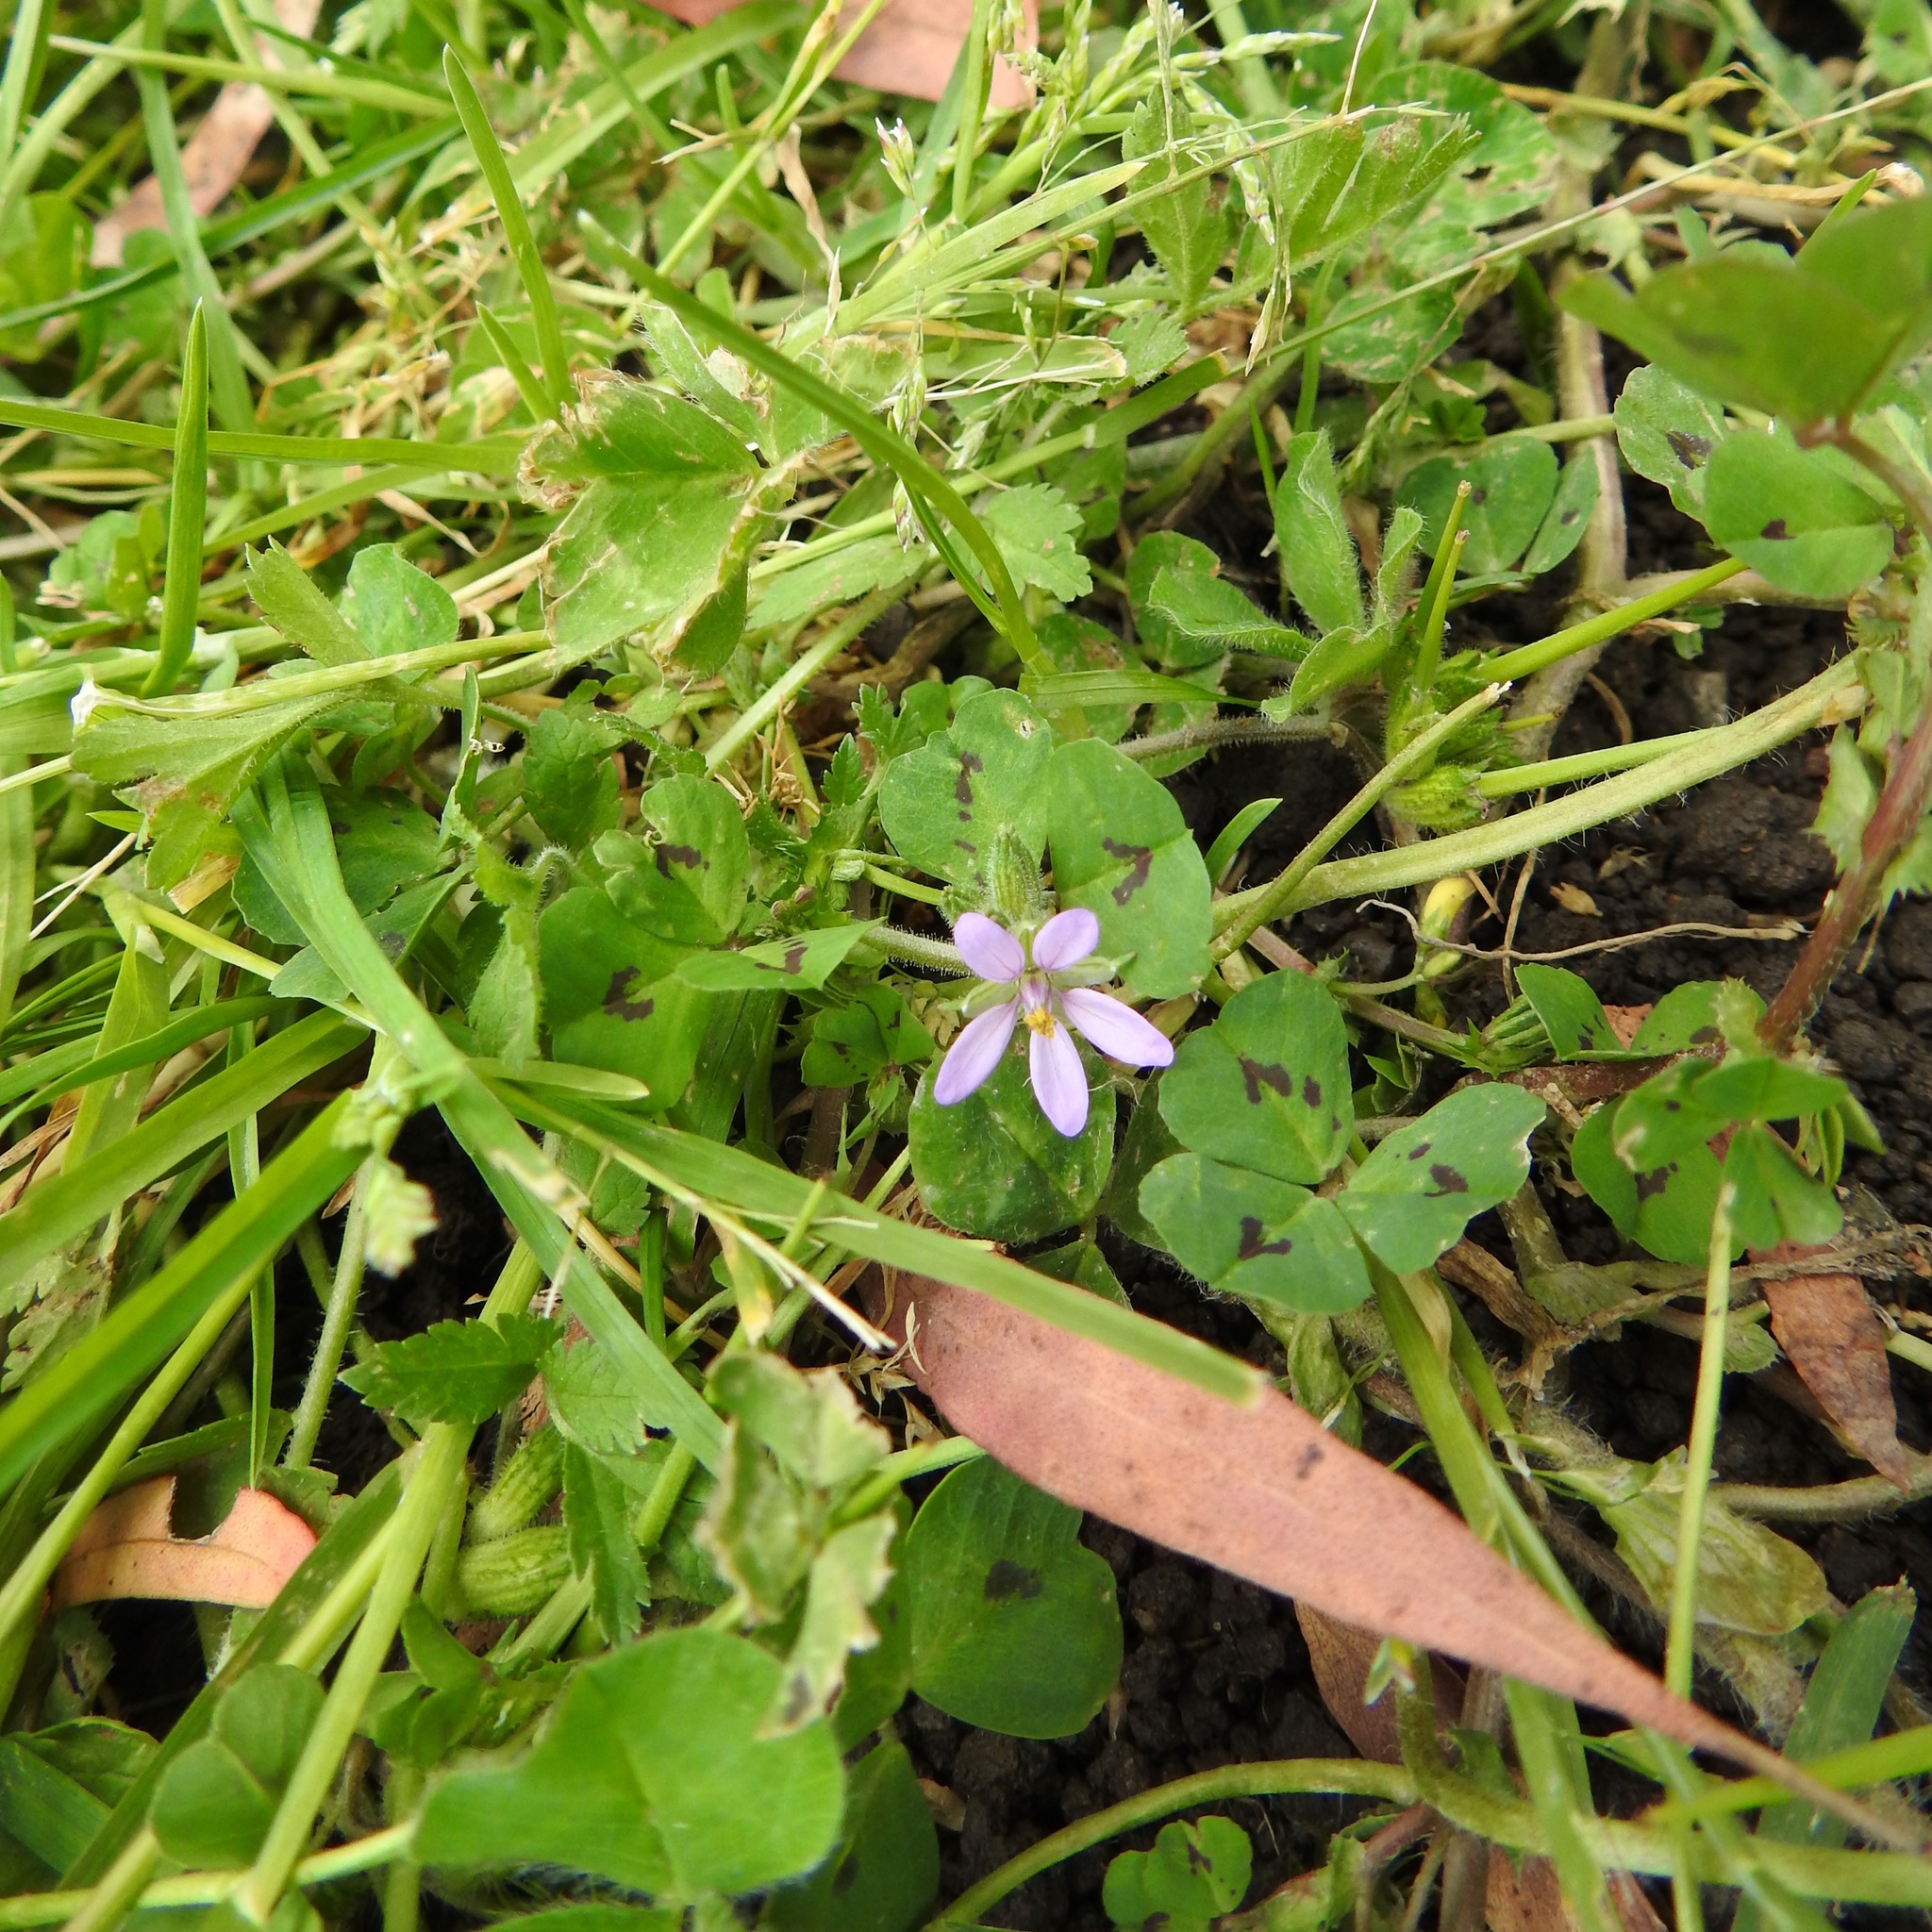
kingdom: Plantae
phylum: Tracheophyta
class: Magnoliopsida
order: Geraniales
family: Geraniaceae
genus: Erodium
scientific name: Erodium moschatum
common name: Musk stork's-bill
